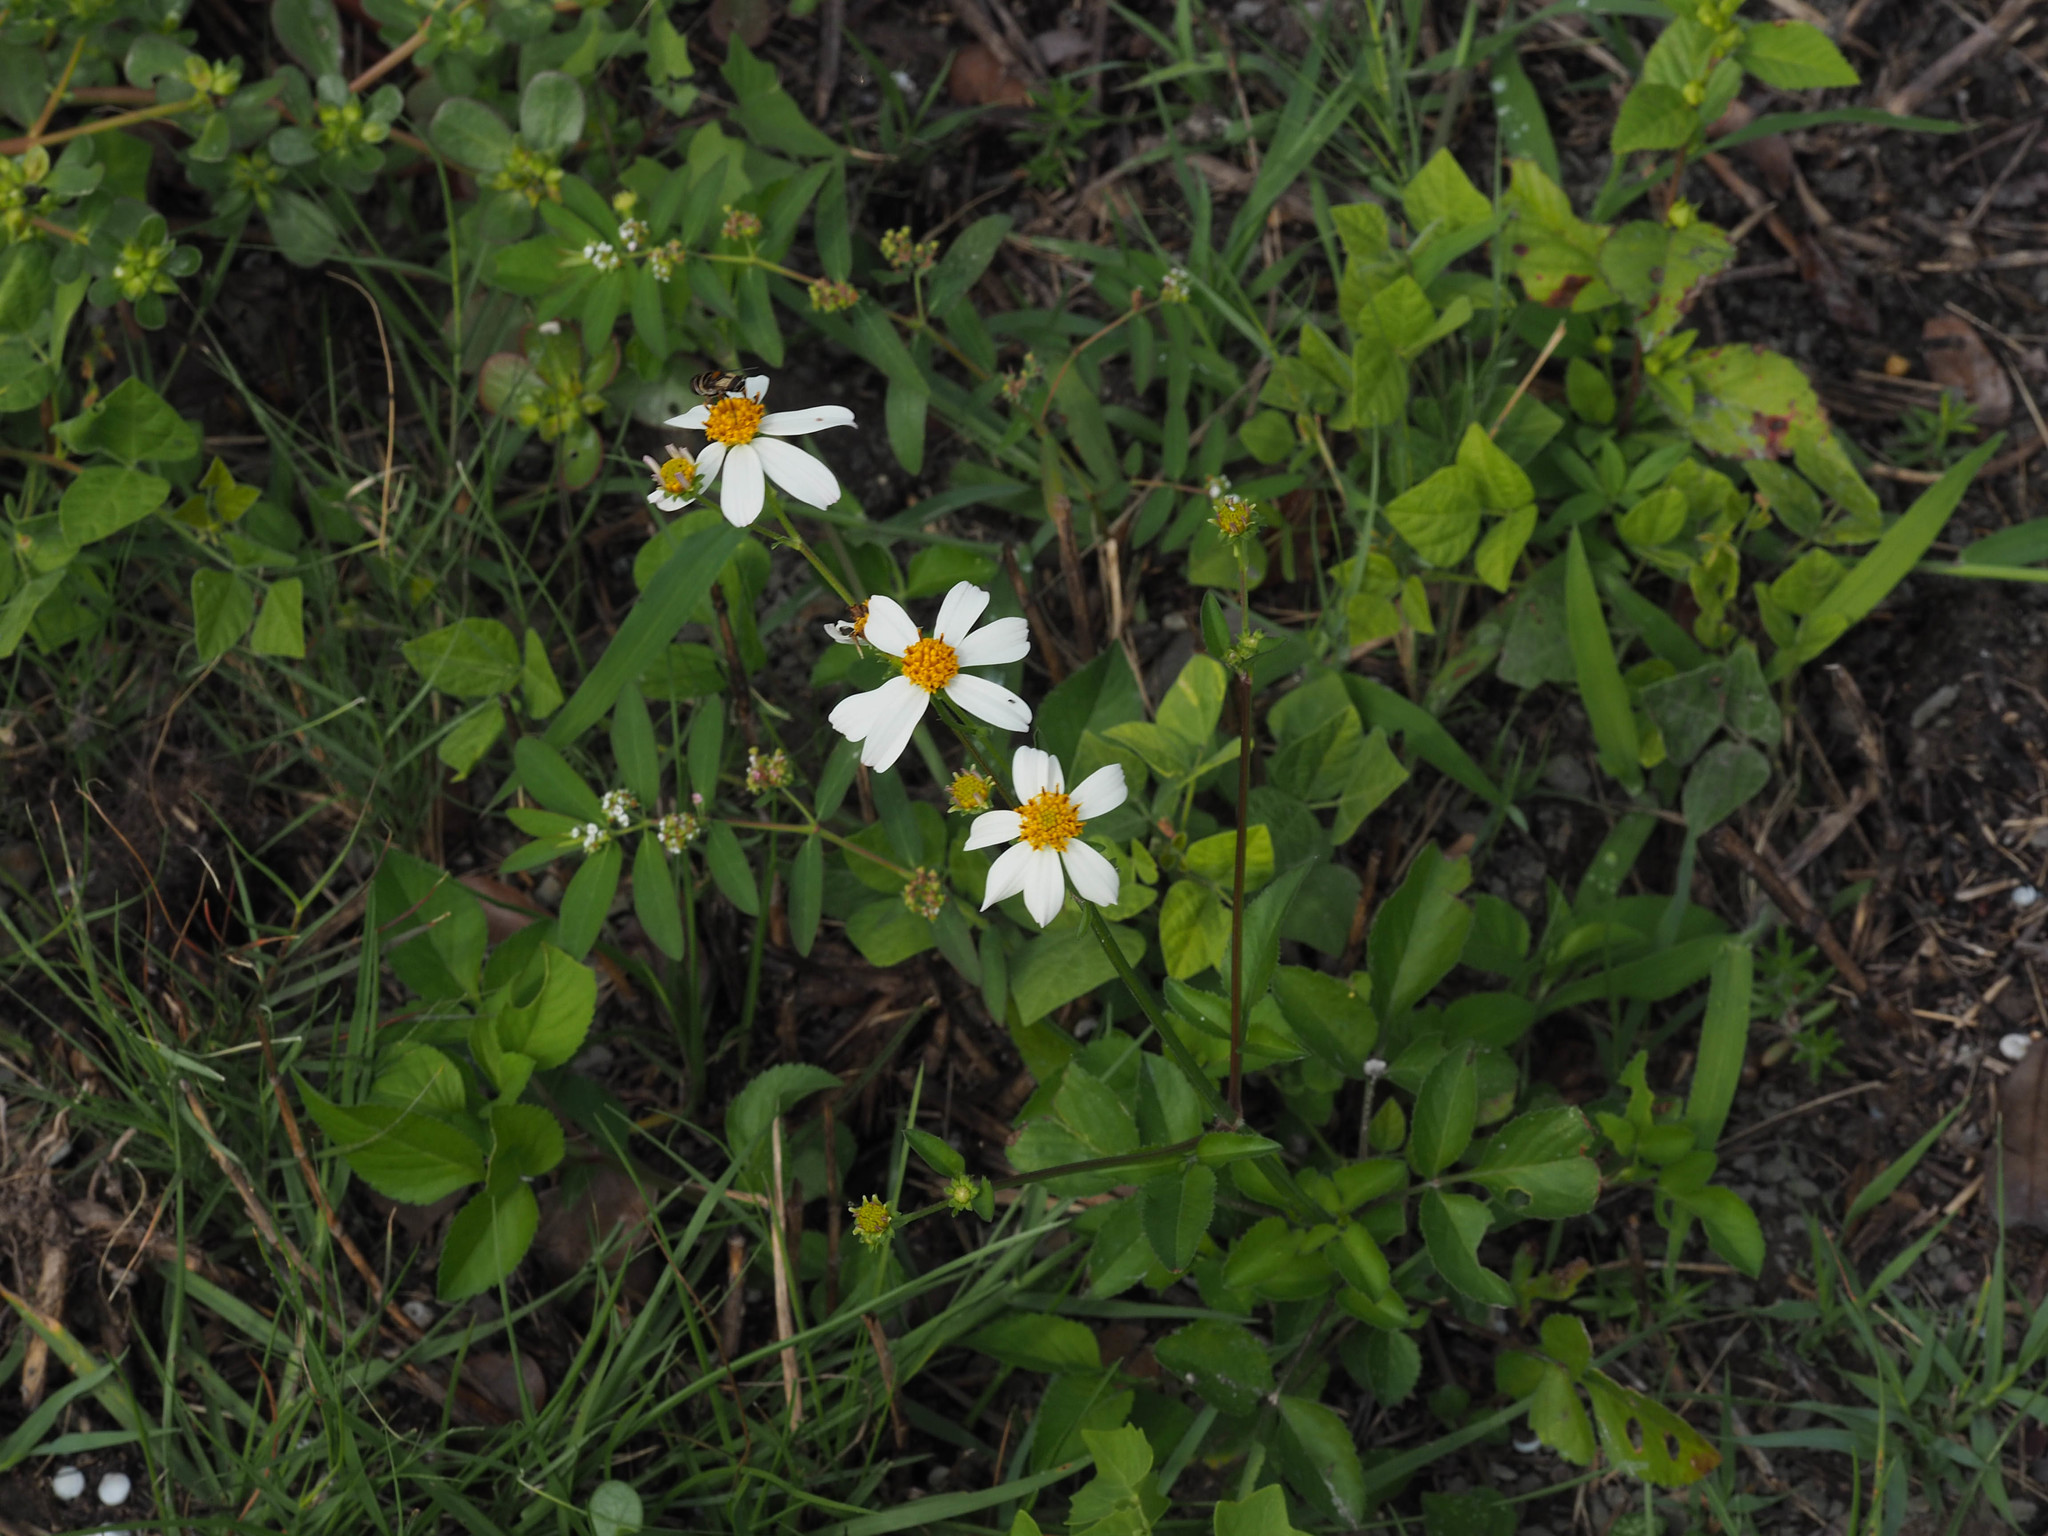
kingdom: Plantae
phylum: Tracheophyta
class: Magnoliopsida
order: Asterales
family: Asteraceae
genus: Bidens
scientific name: Bidens alba
